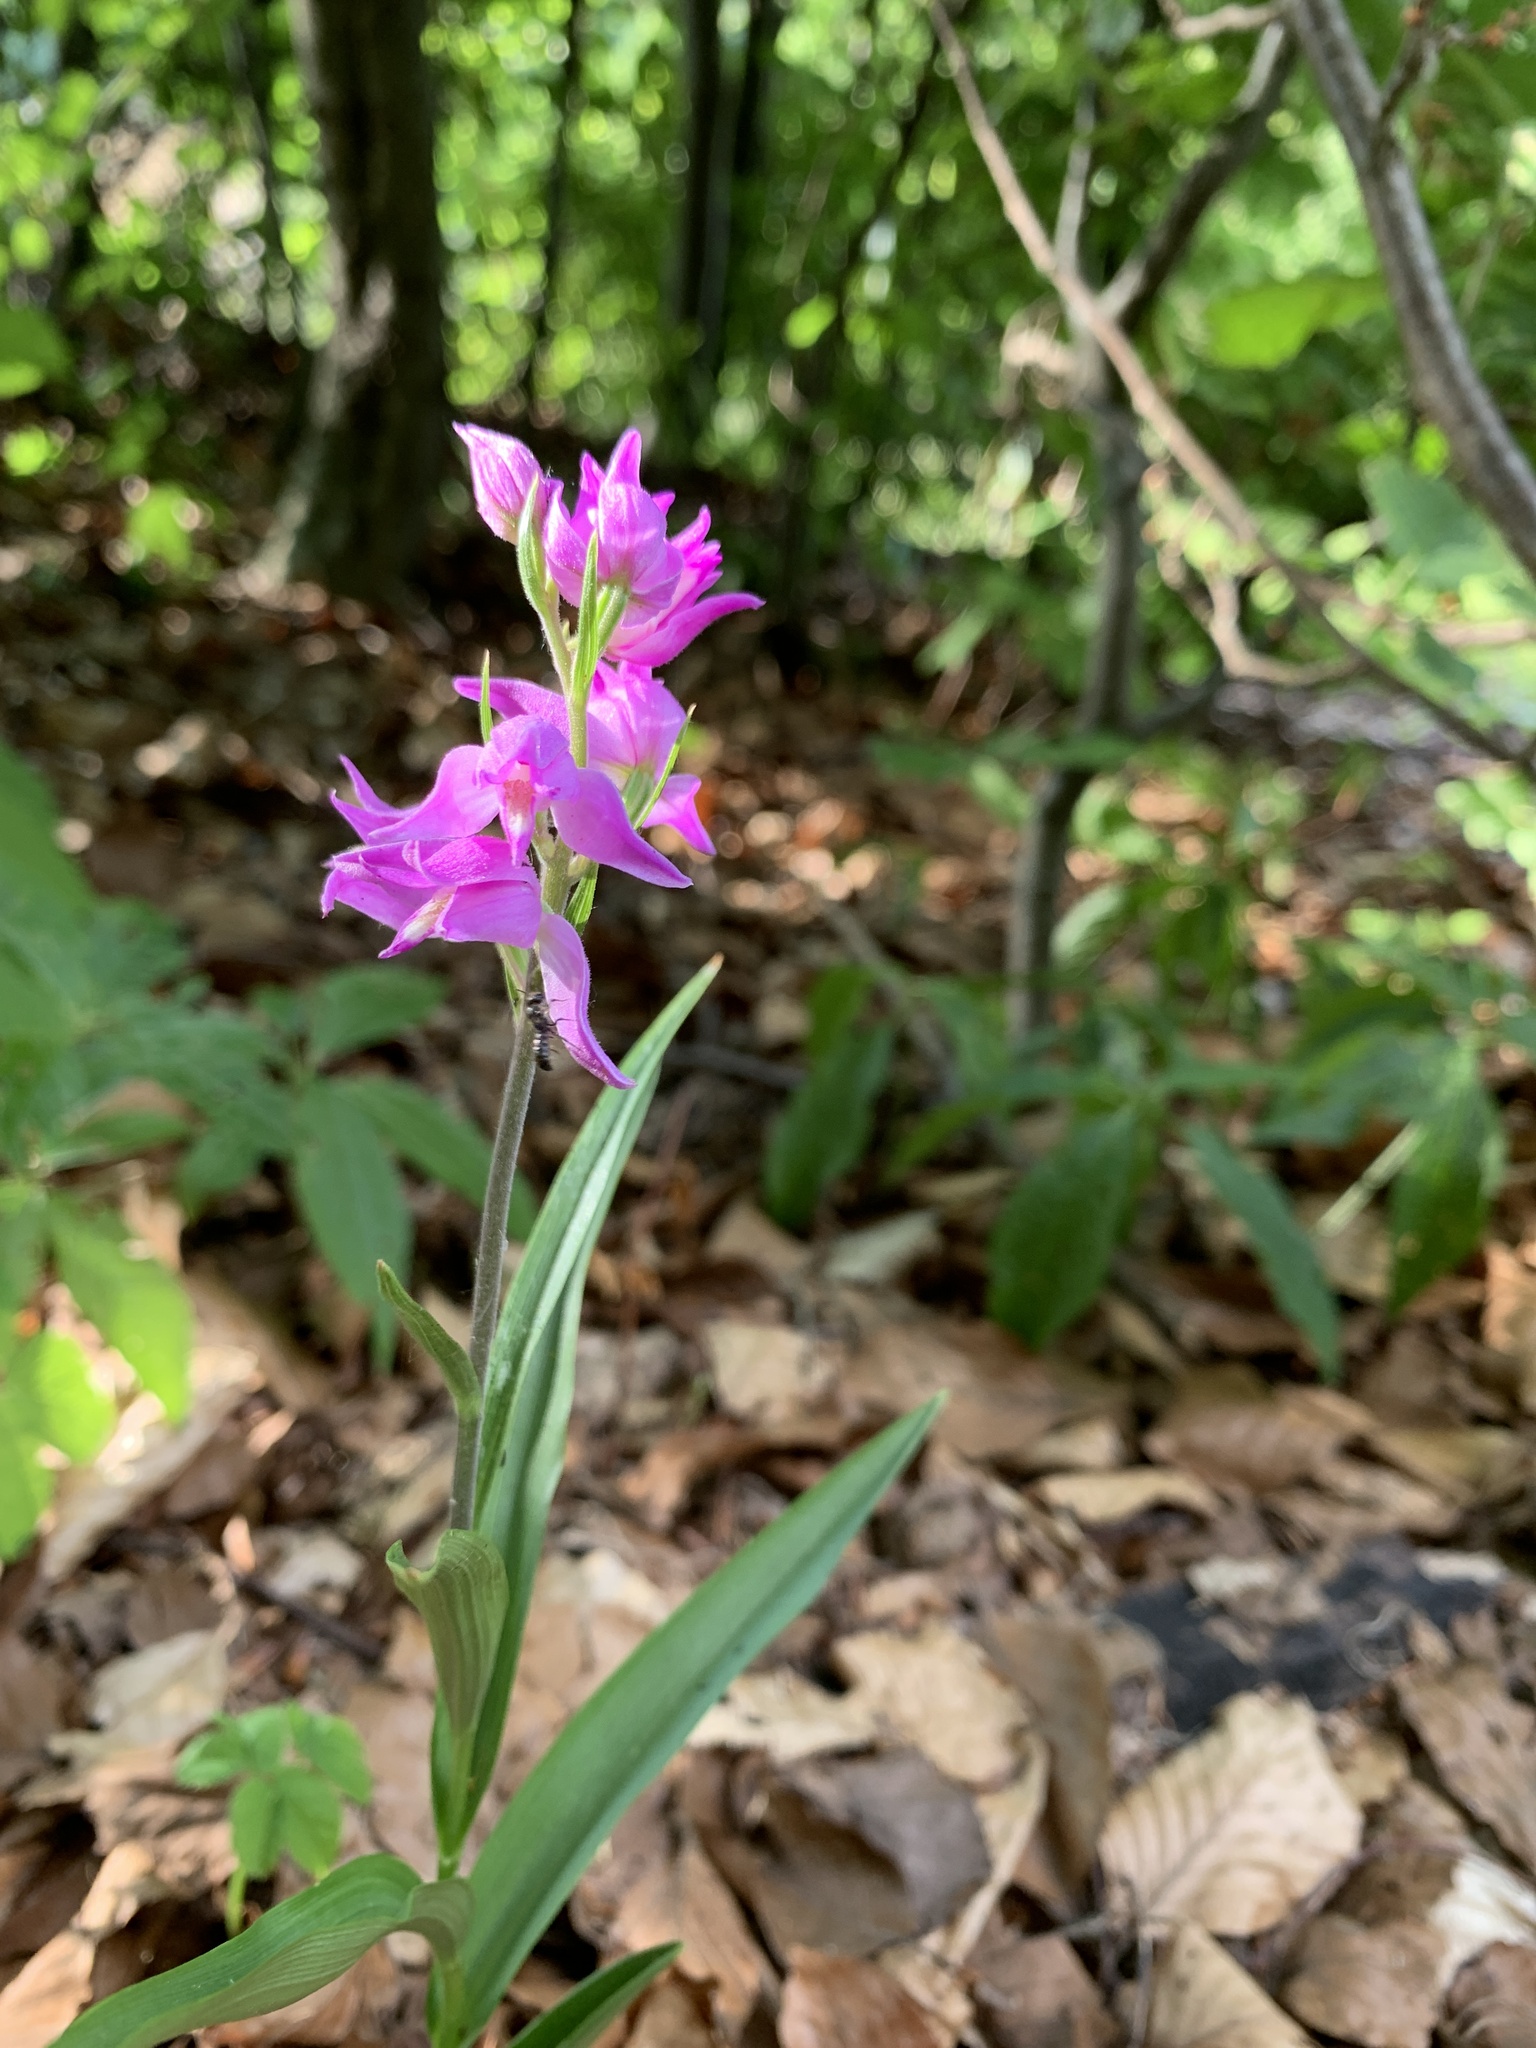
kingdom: Plantae
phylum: Tracheophyta
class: Liliopsida
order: Asparagales
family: Orchidaceae
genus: Cephalanthera
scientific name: Cephalanthera rubra
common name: Red helleborine
